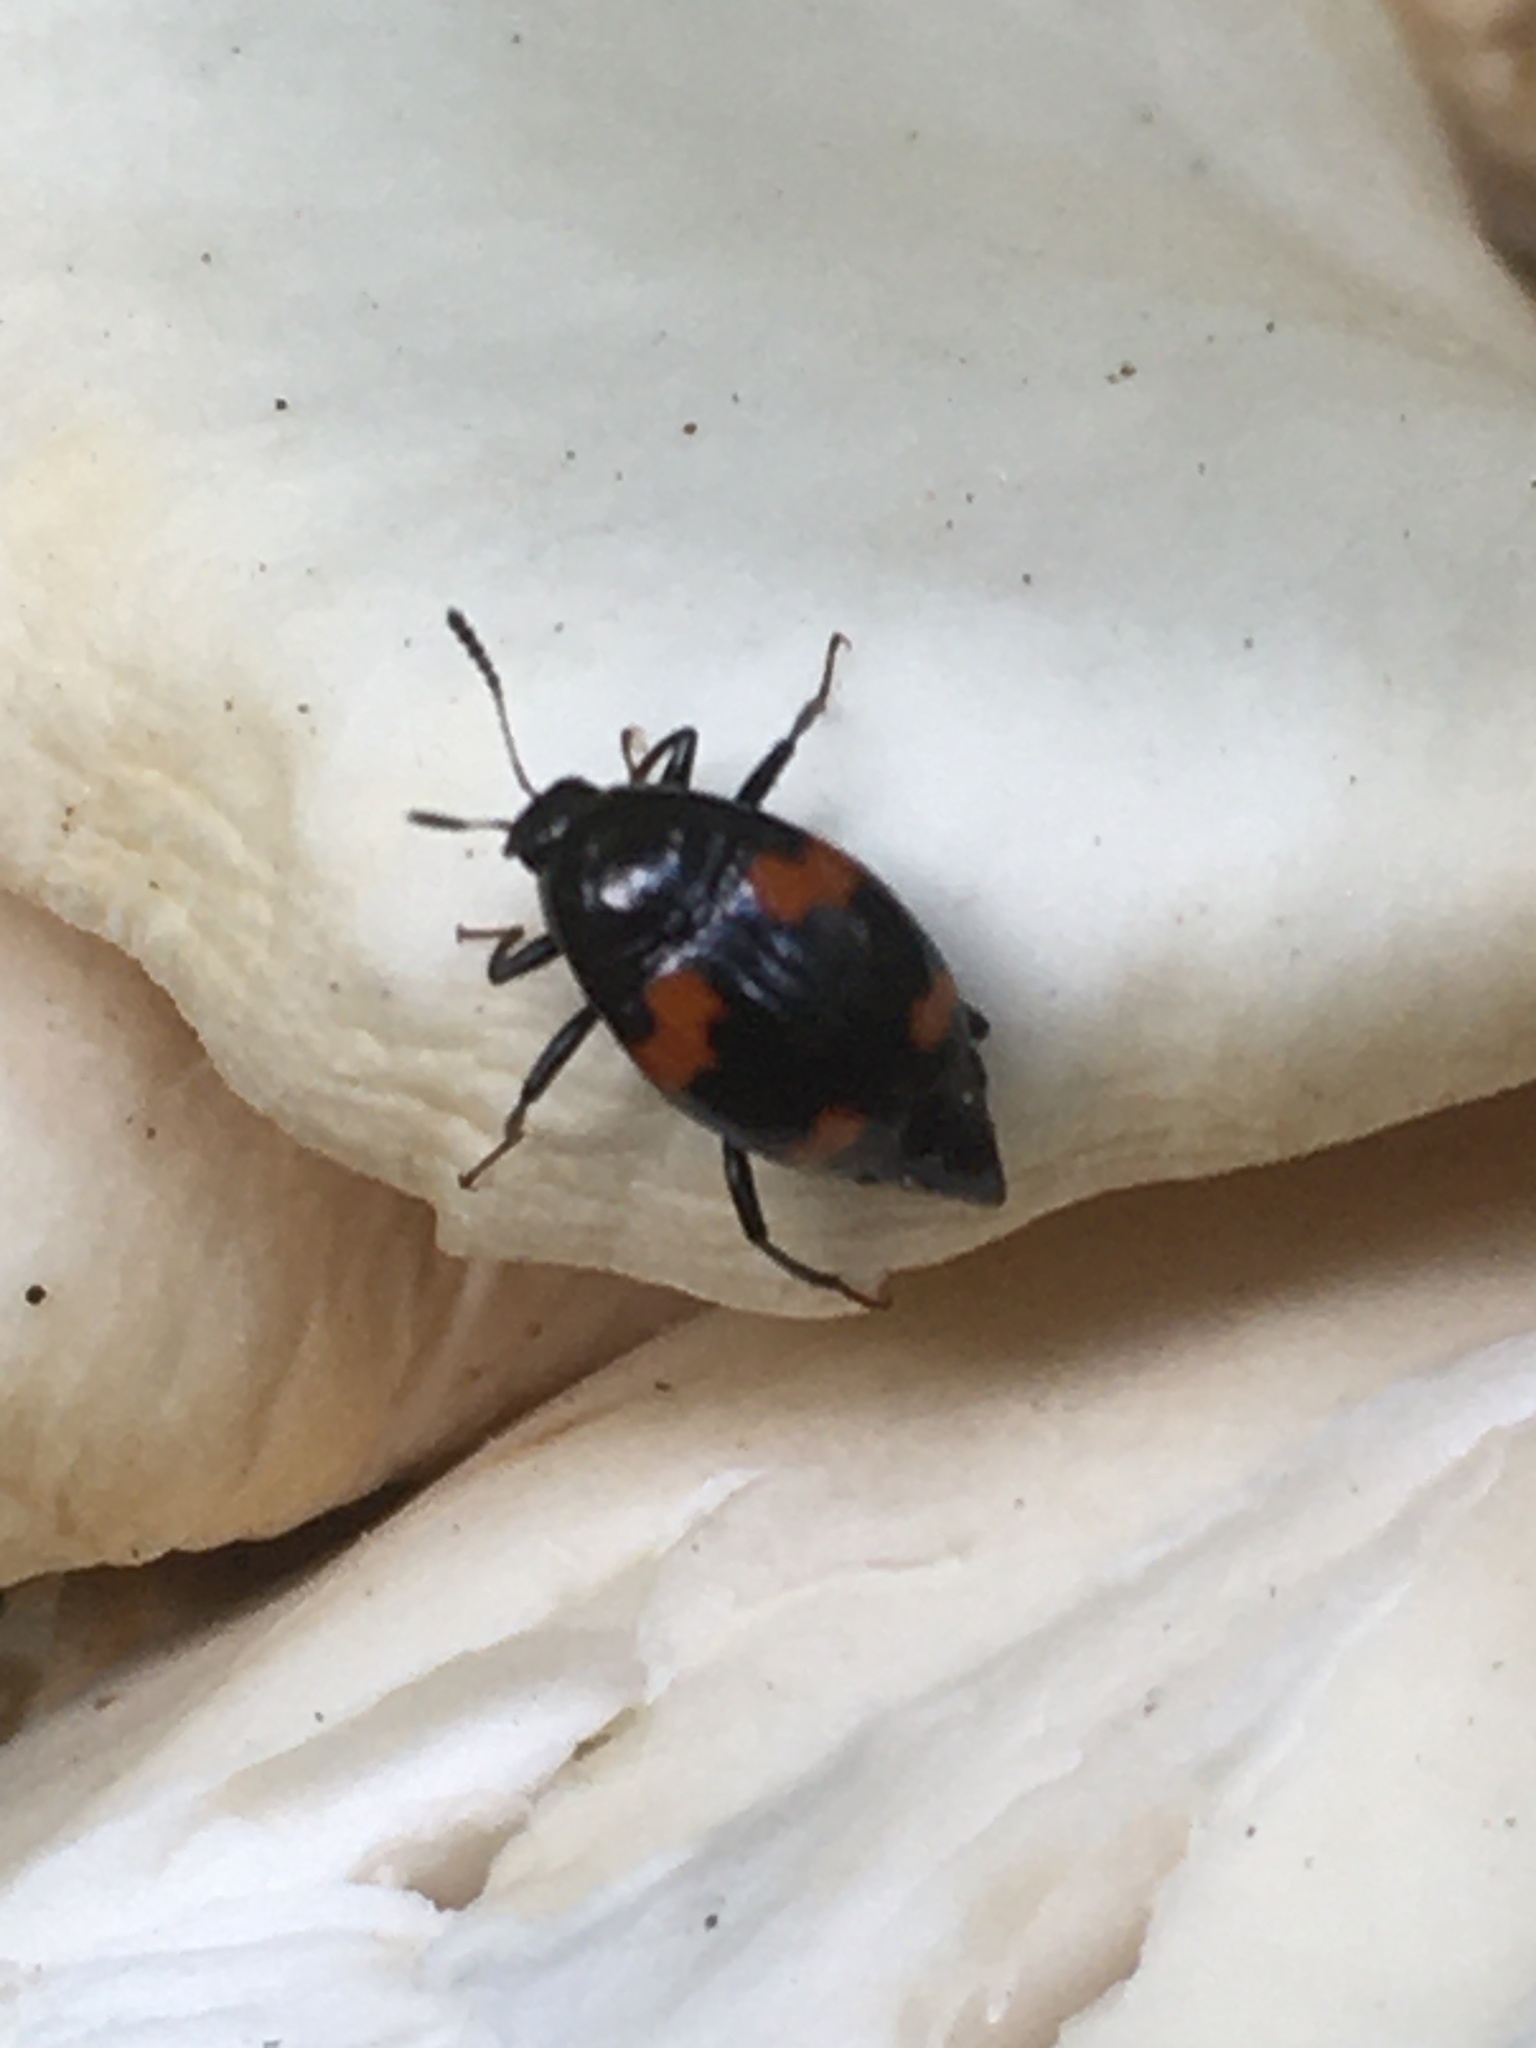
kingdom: Animalia
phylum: Arthropoda
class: Insecta
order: Coleoptera
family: Staphylinidae
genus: Scaphidium
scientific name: Scaphidium quadrimaculatum
